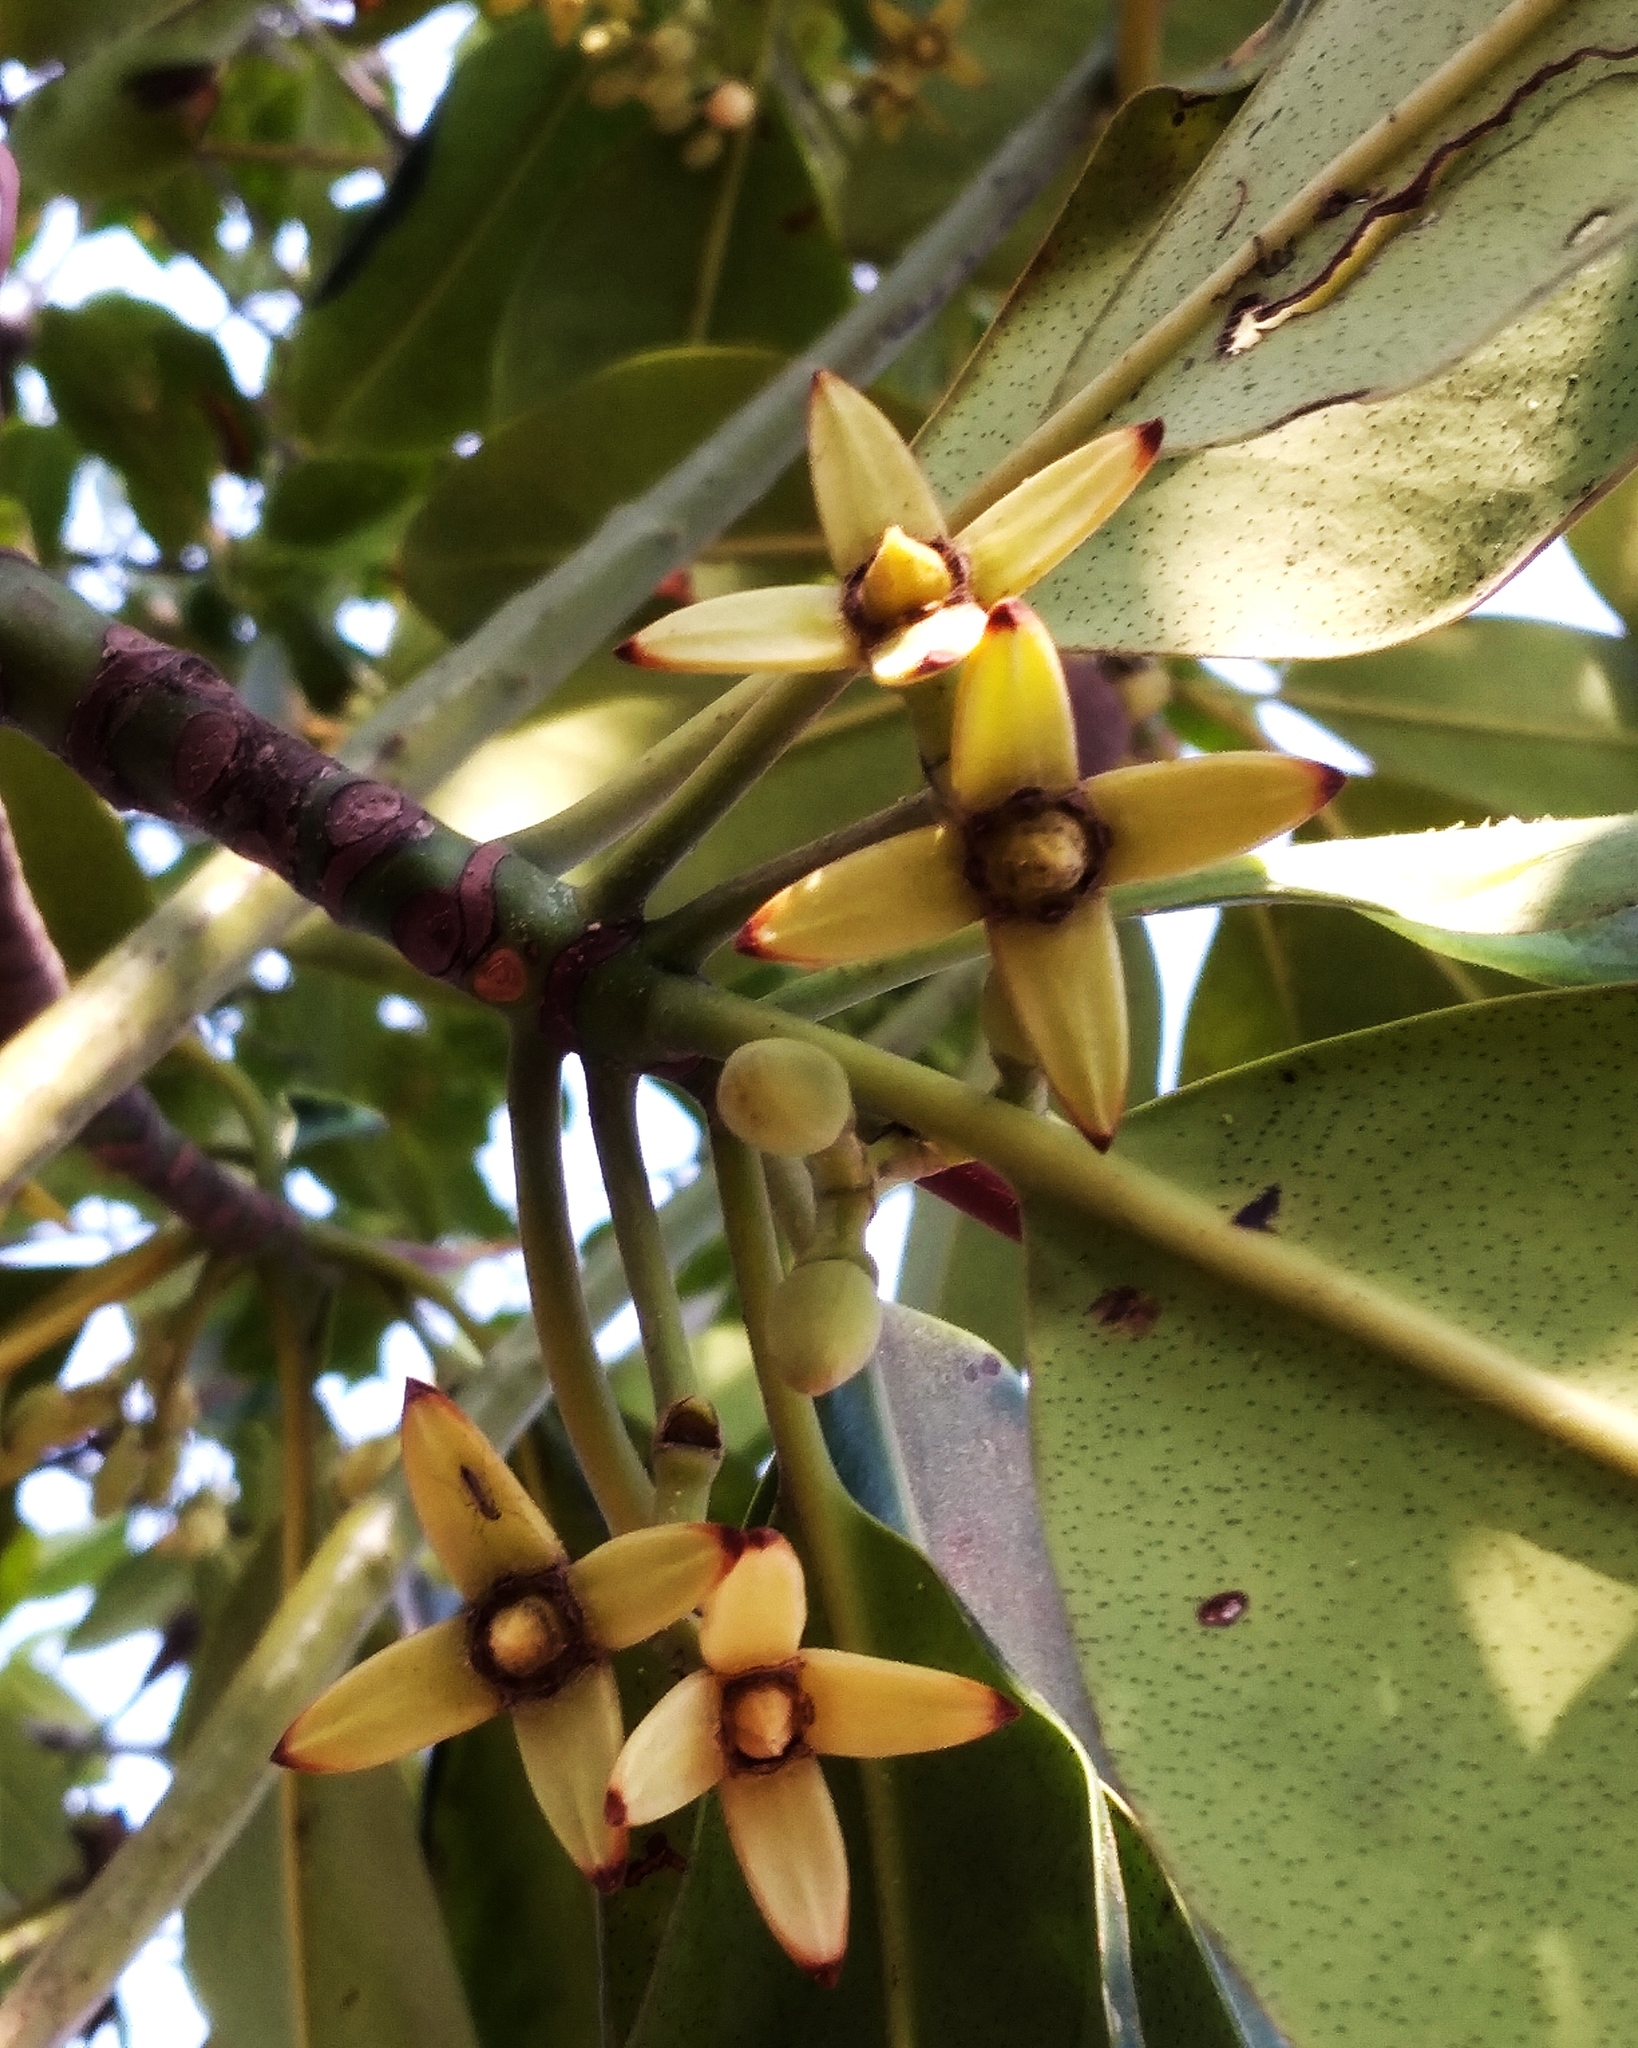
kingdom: Plantae
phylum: Tracheophyta
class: Magnoliopsida
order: Malpighiales
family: Rhizophoraceae
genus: Rhizophora
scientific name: Rhizophora stylosa
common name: Red mangrove
